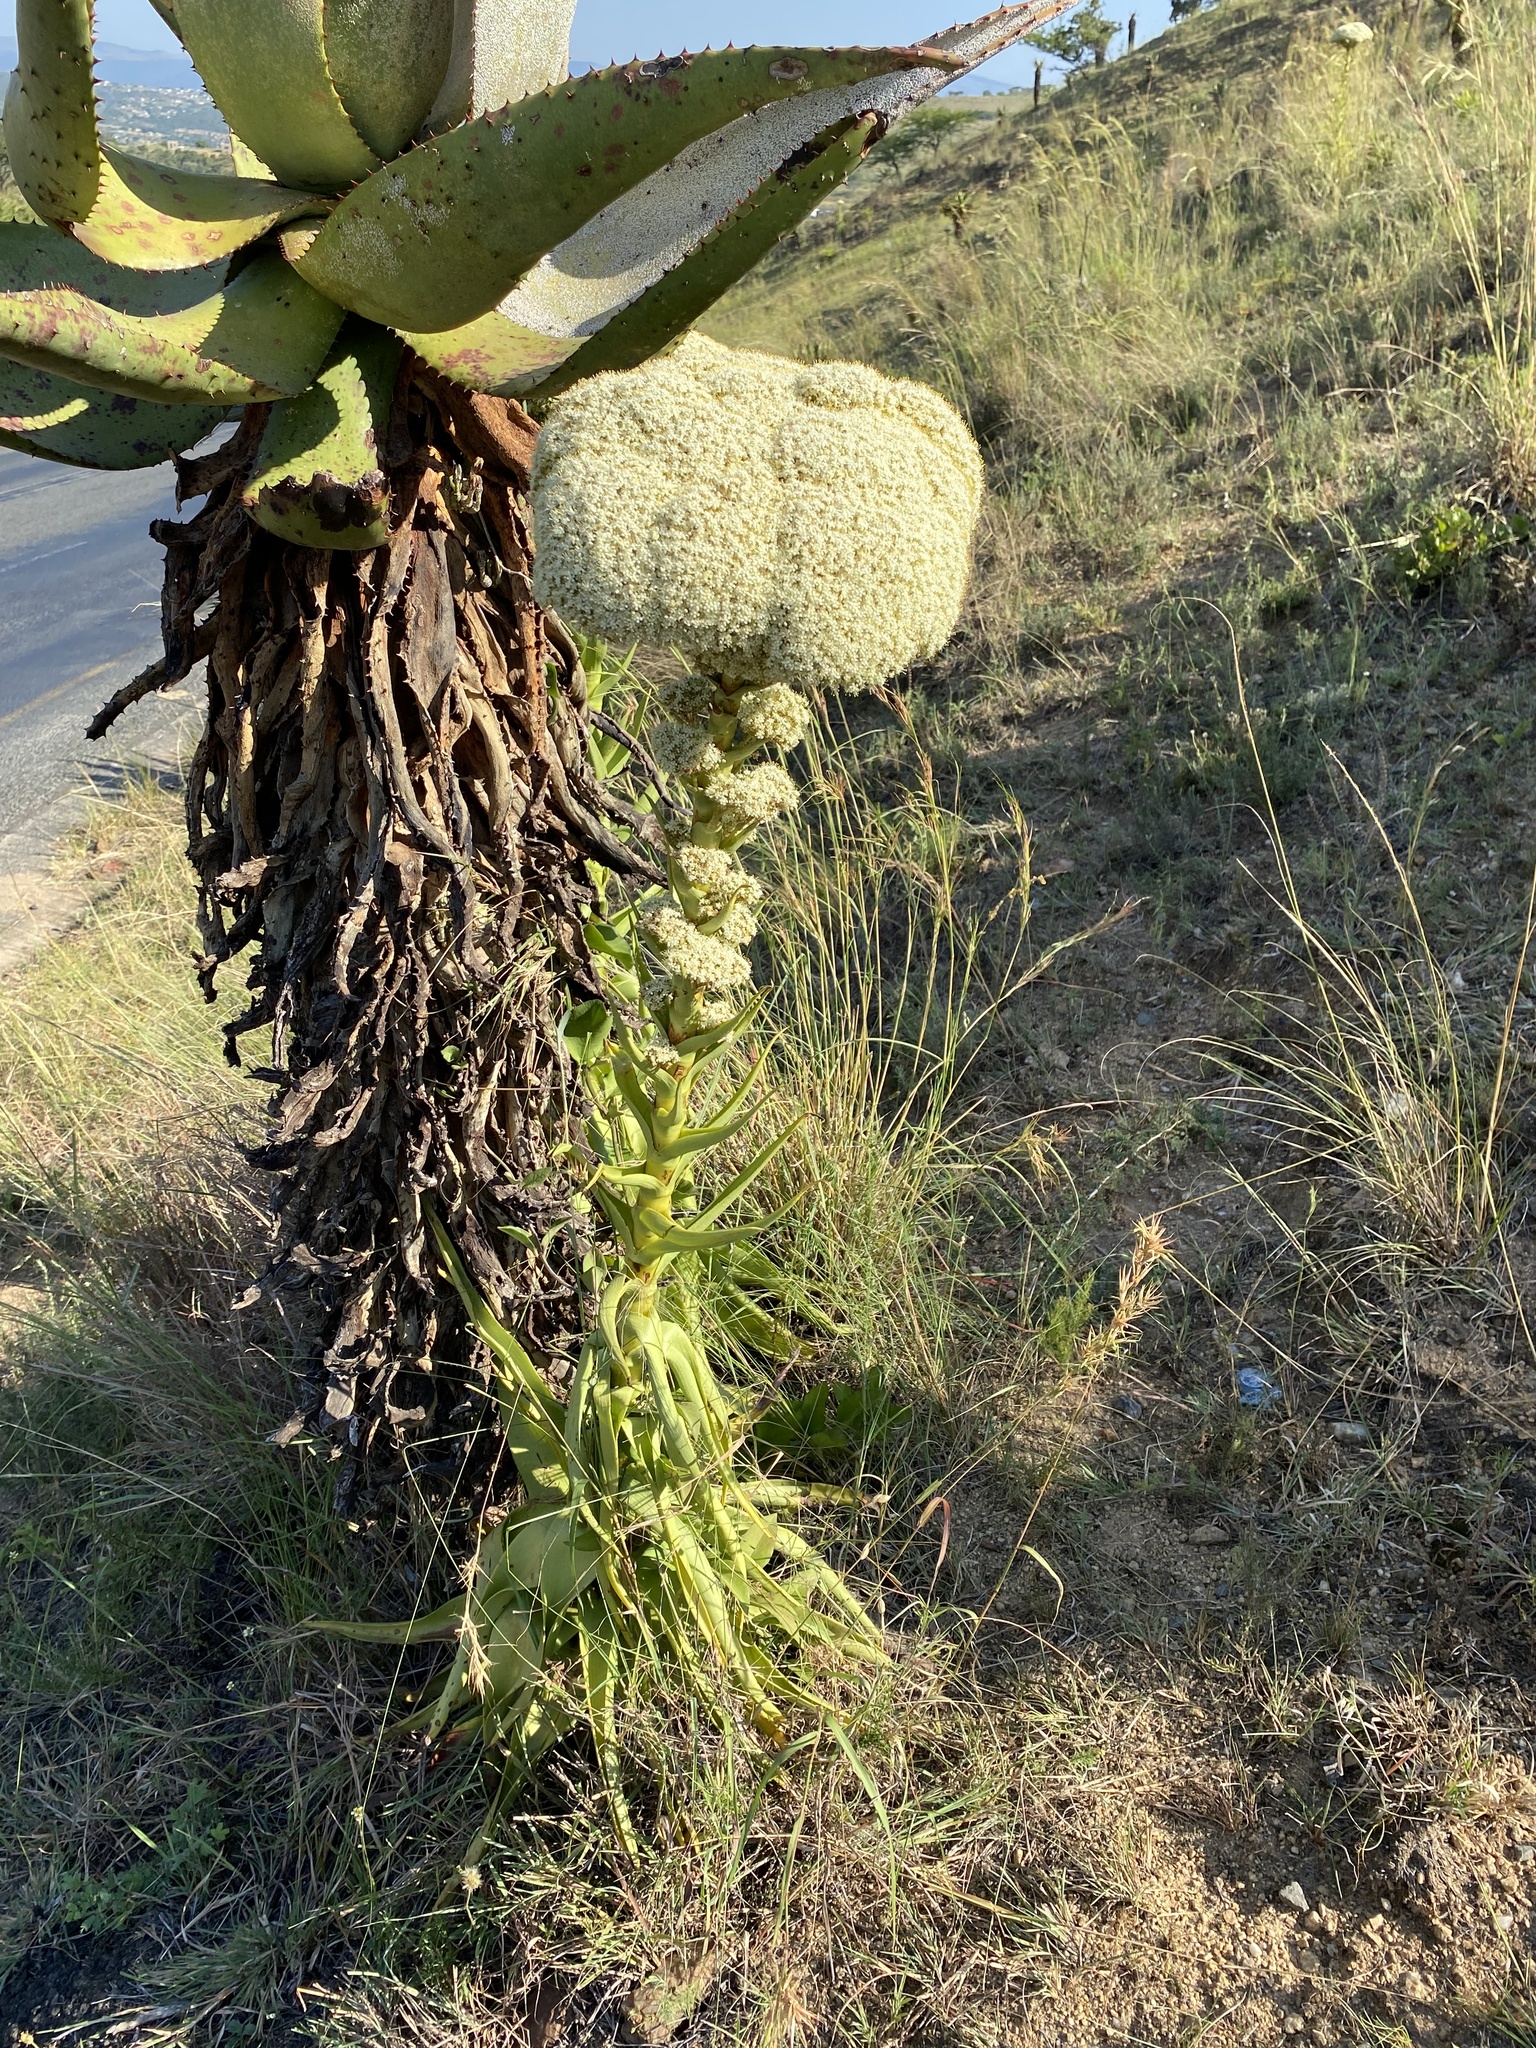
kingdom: Plantae
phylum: Tracheophyta
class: Magnoliopsida
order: Saxifragales
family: Crassulaceae
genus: Crassula
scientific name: Crassula acinaciformis
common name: Giant crassula
